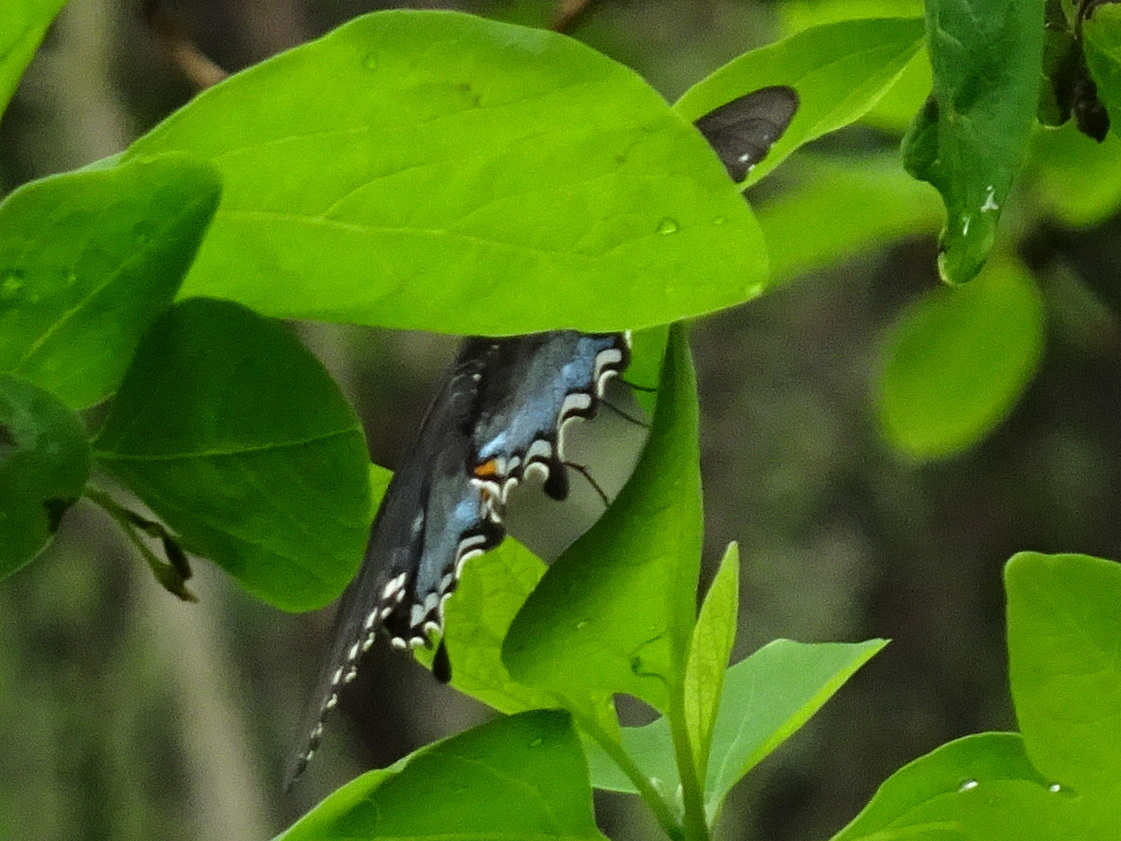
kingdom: Animalia
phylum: Arthropoda
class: Insecta
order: Lepidoptera
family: Papilionidae
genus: Papilio
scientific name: Papilio troilus
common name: Spicebush swallowtail
